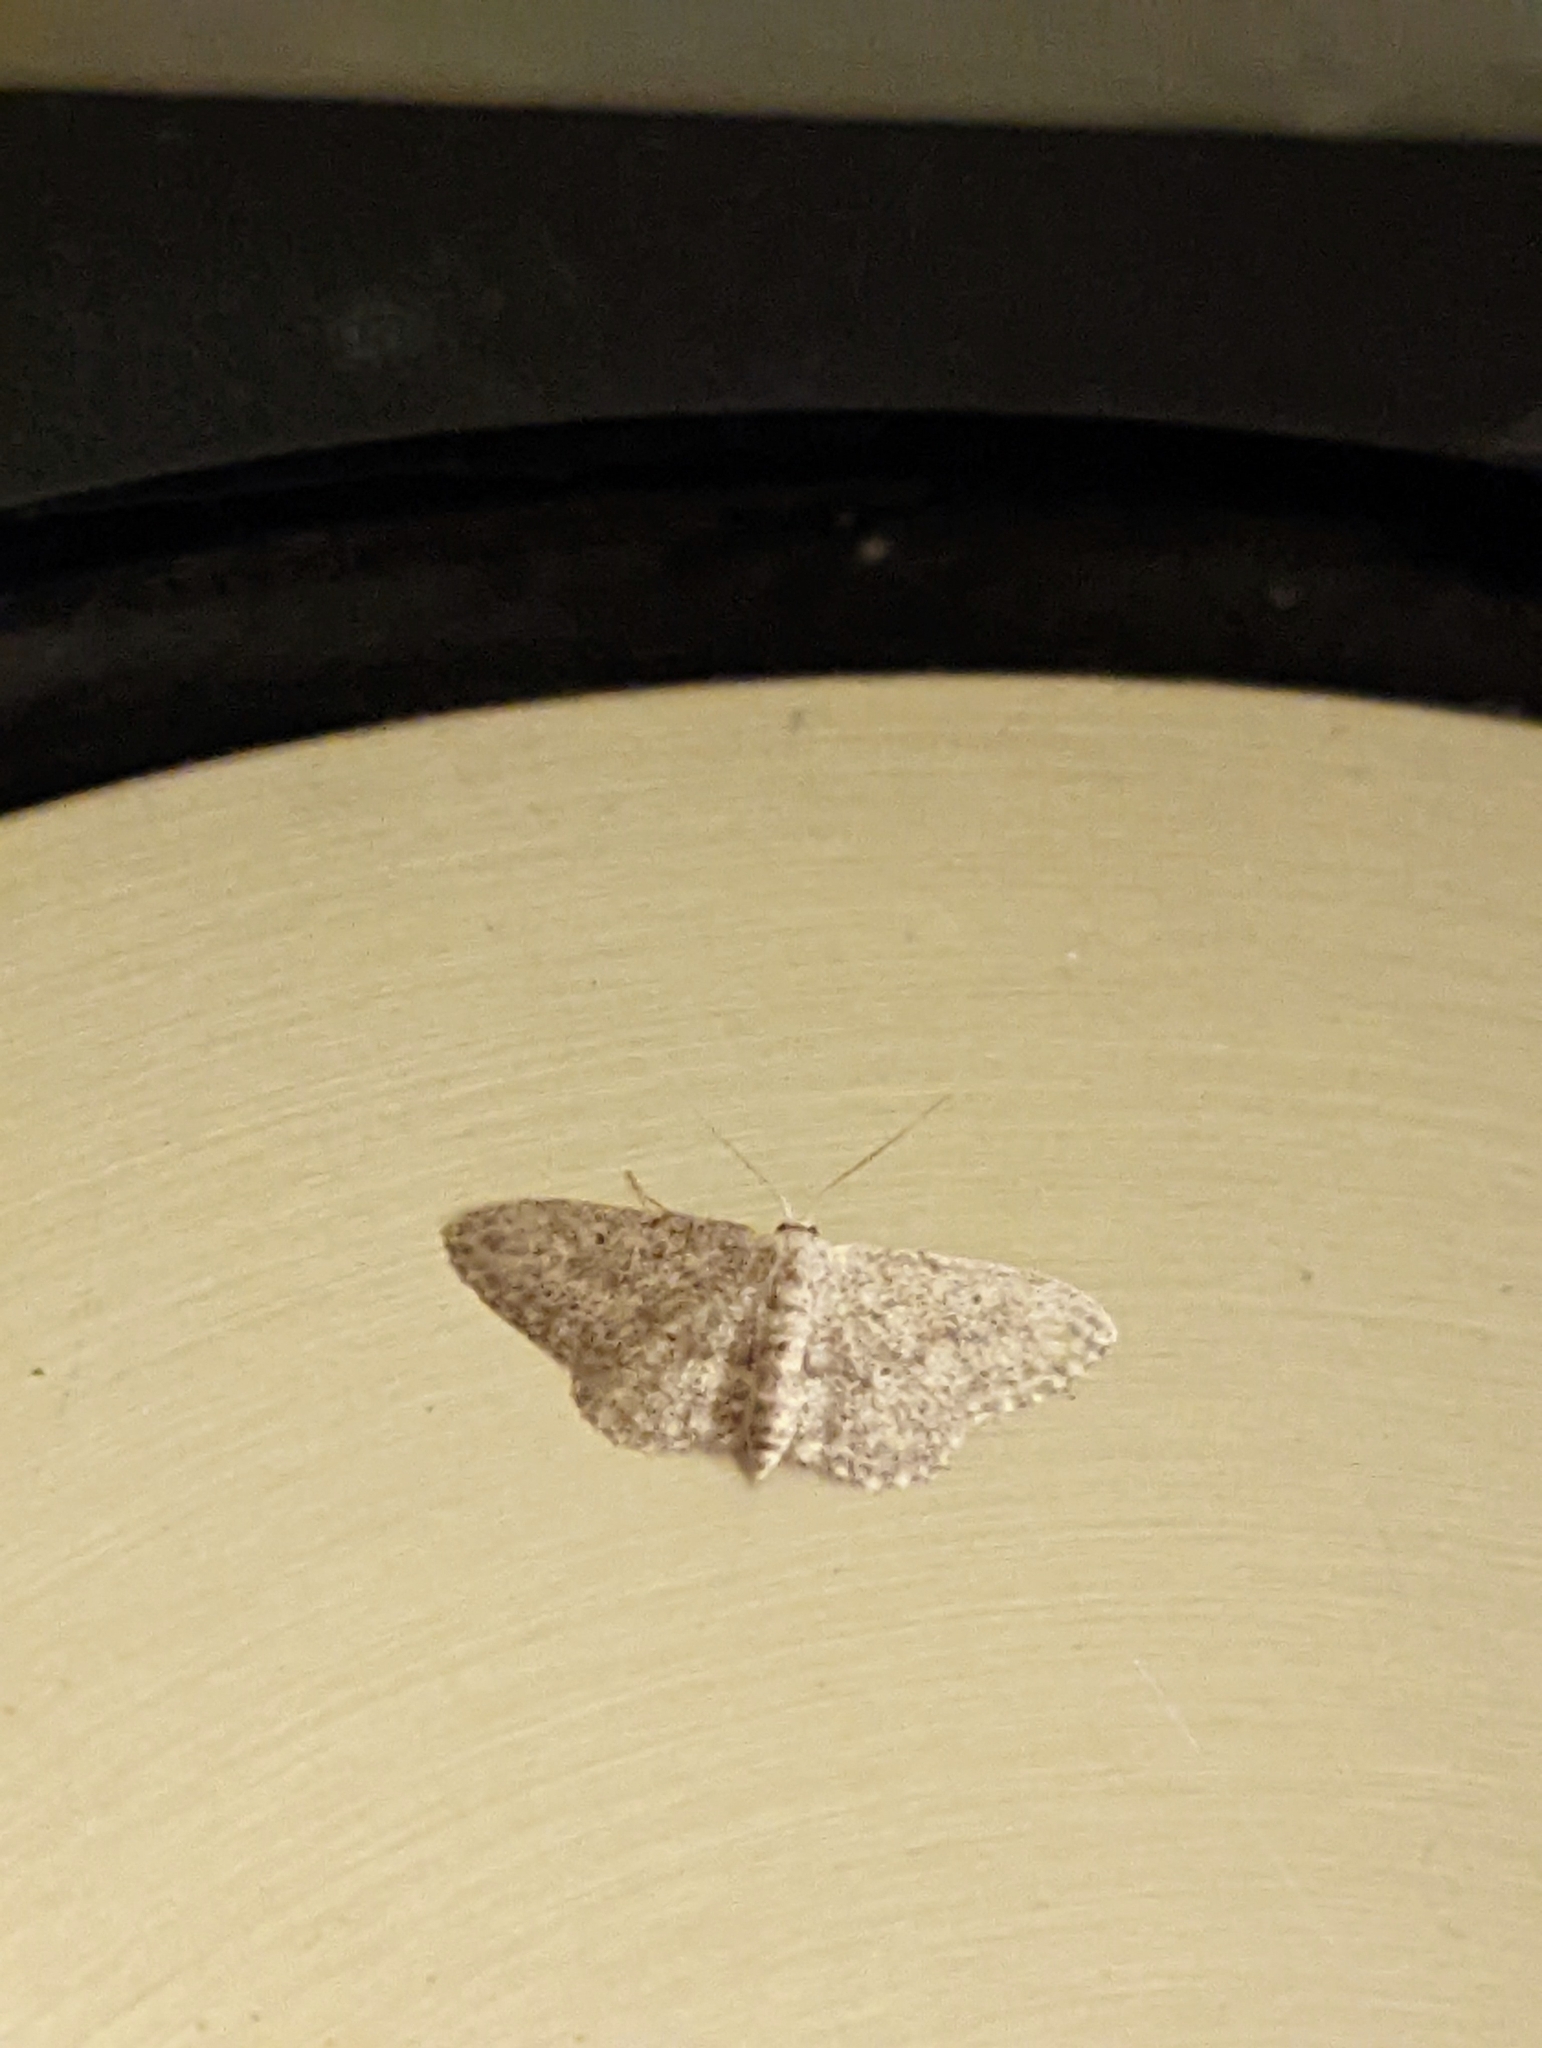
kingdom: Animalia
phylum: Arthropoda
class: Insecta
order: Lepidoptera
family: Geometridae
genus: Idaea
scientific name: Idaea seriata
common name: Small dusty wave
